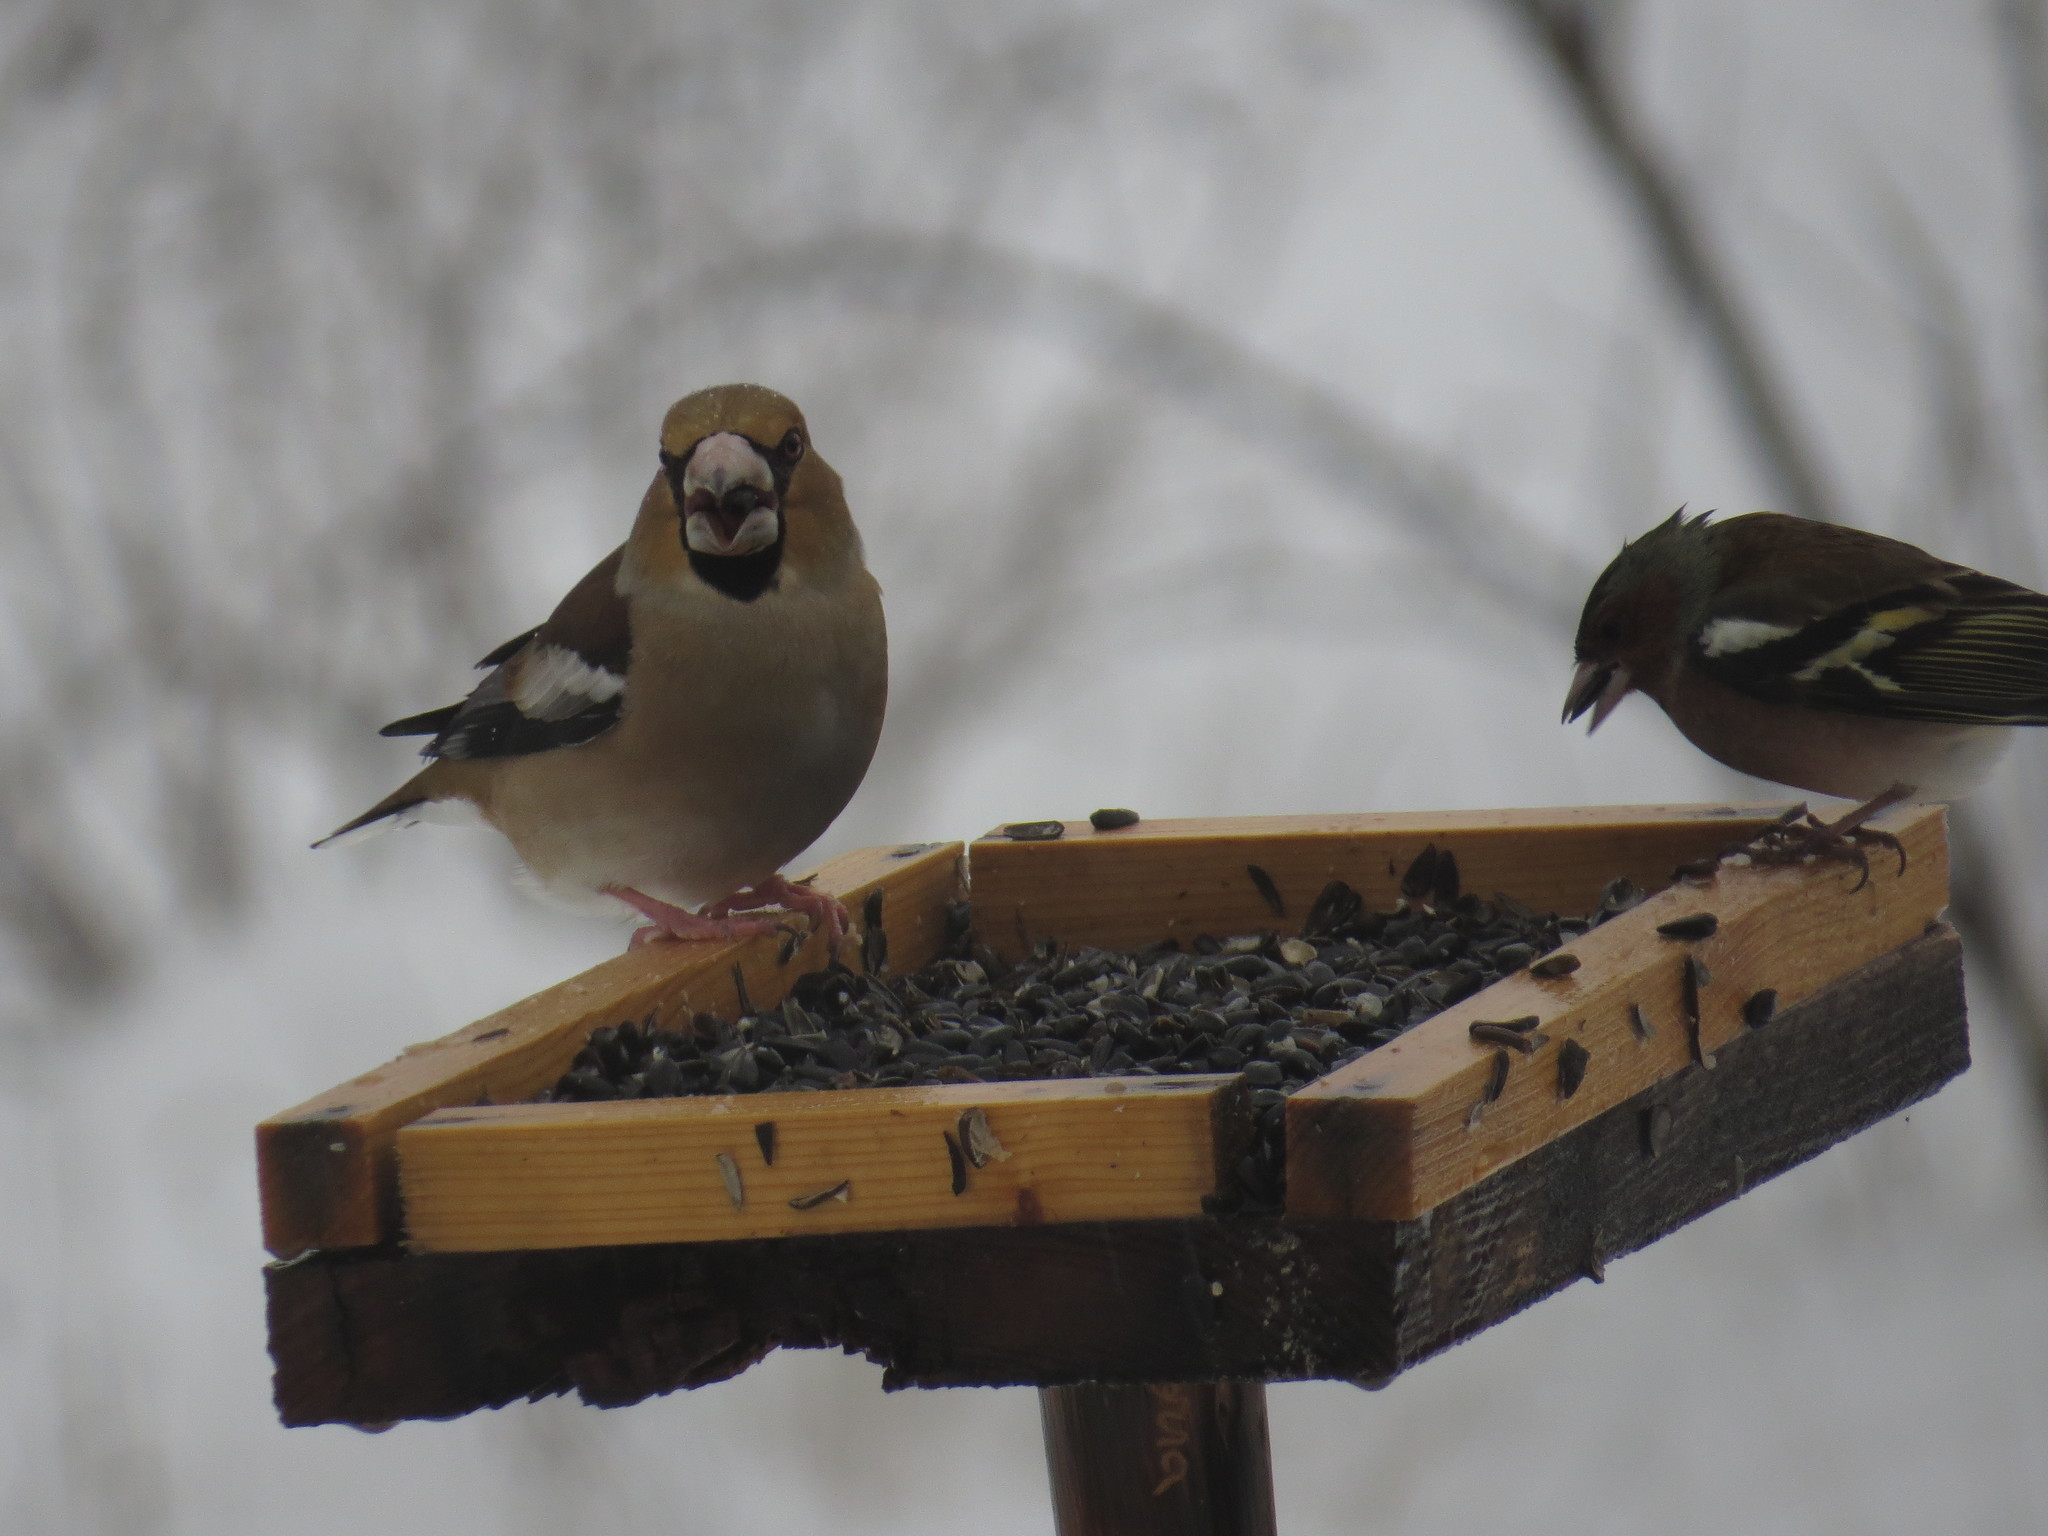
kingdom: Animalia
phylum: Chordata
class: Aves
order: Passeriformes
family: Fringillidae
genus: Coccothraustes
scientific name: Coccothraustes coccothraustes
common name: Hawfinch
